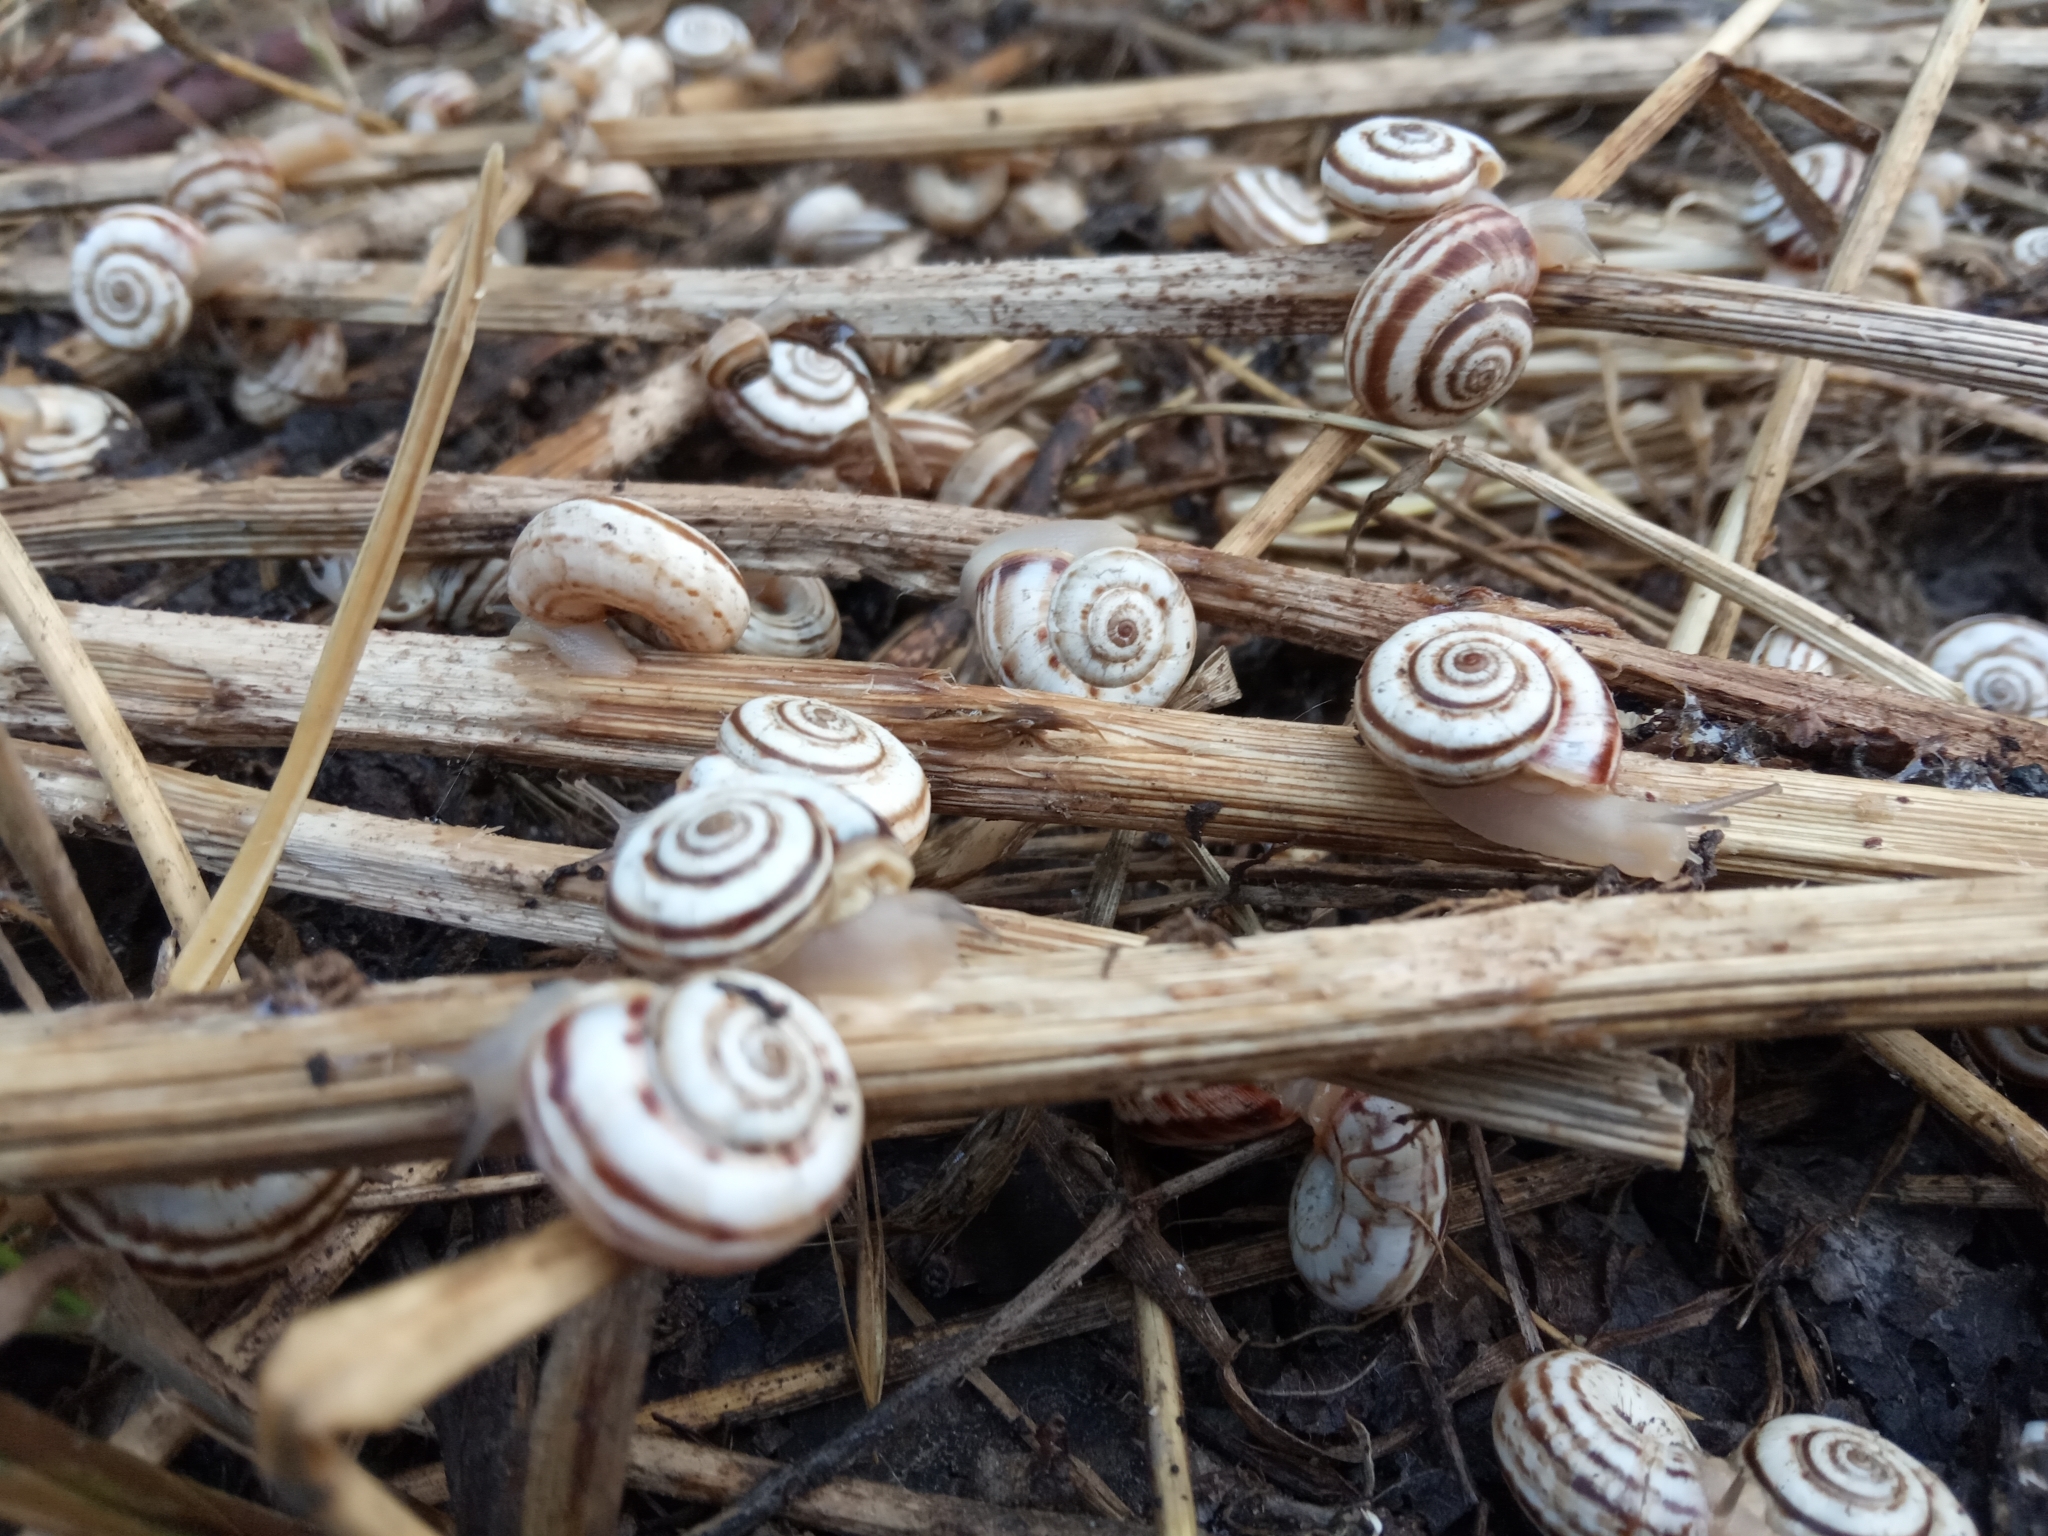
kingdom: Animalia
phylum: Mollusca
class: Gastropoda
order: Stylommatophora
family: Geomitridae
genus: Xeropicta
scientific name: Xeropicta derbentina
